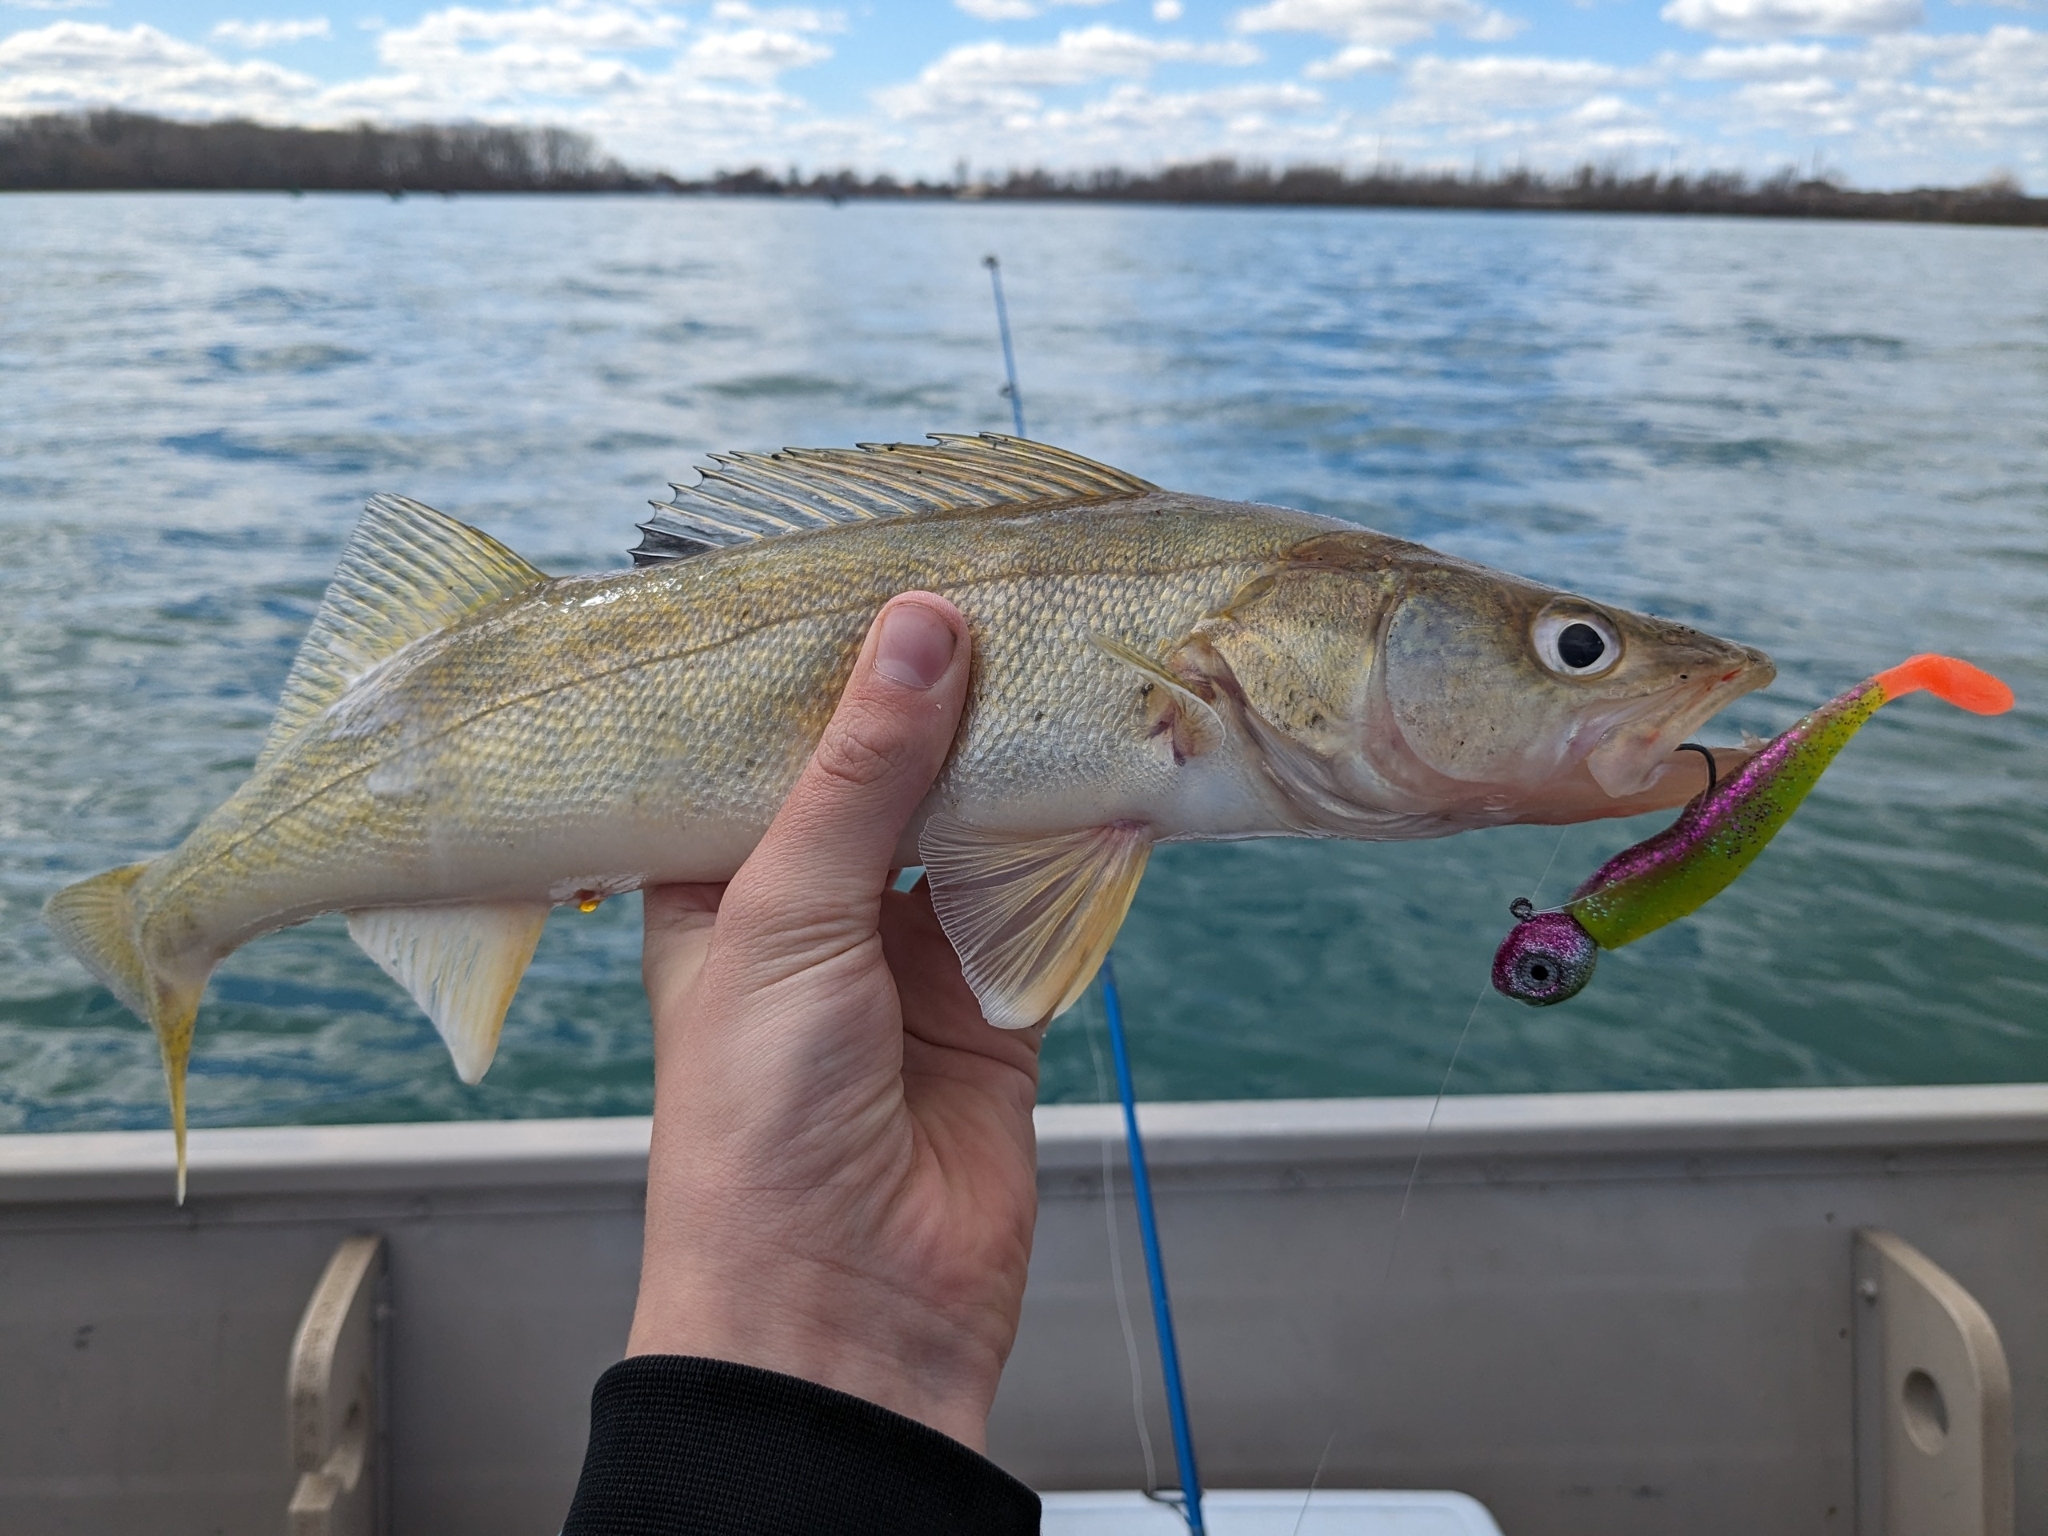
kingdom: Animalia
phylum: Chordata
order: Perciformes
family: Percidae
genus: Sander
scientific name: Sander vitreus
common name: Walleye
